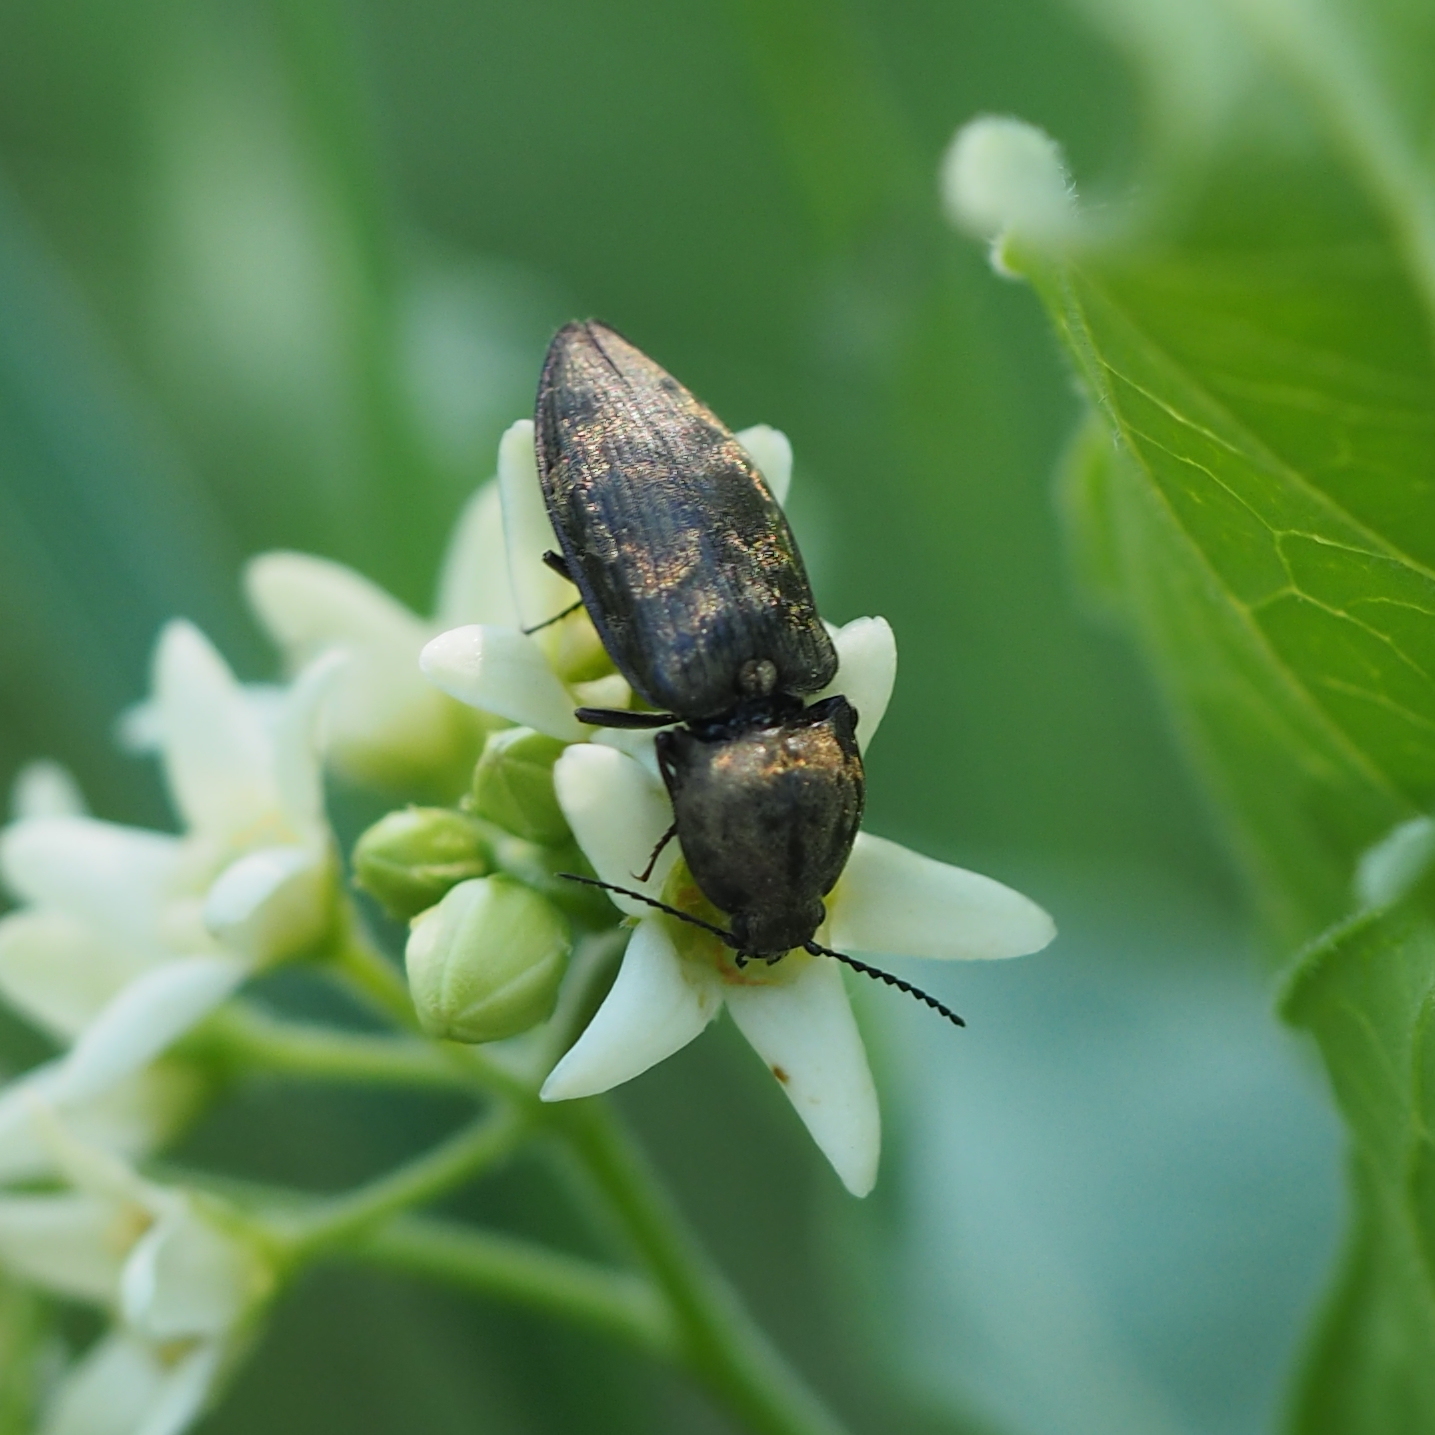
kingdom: Animalia
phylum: Arthropoda
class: Insecta
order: Coleoptera
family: Elateridae
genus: Prosternon
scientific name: Prosternon tessellatum
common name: Chequered click beetle
